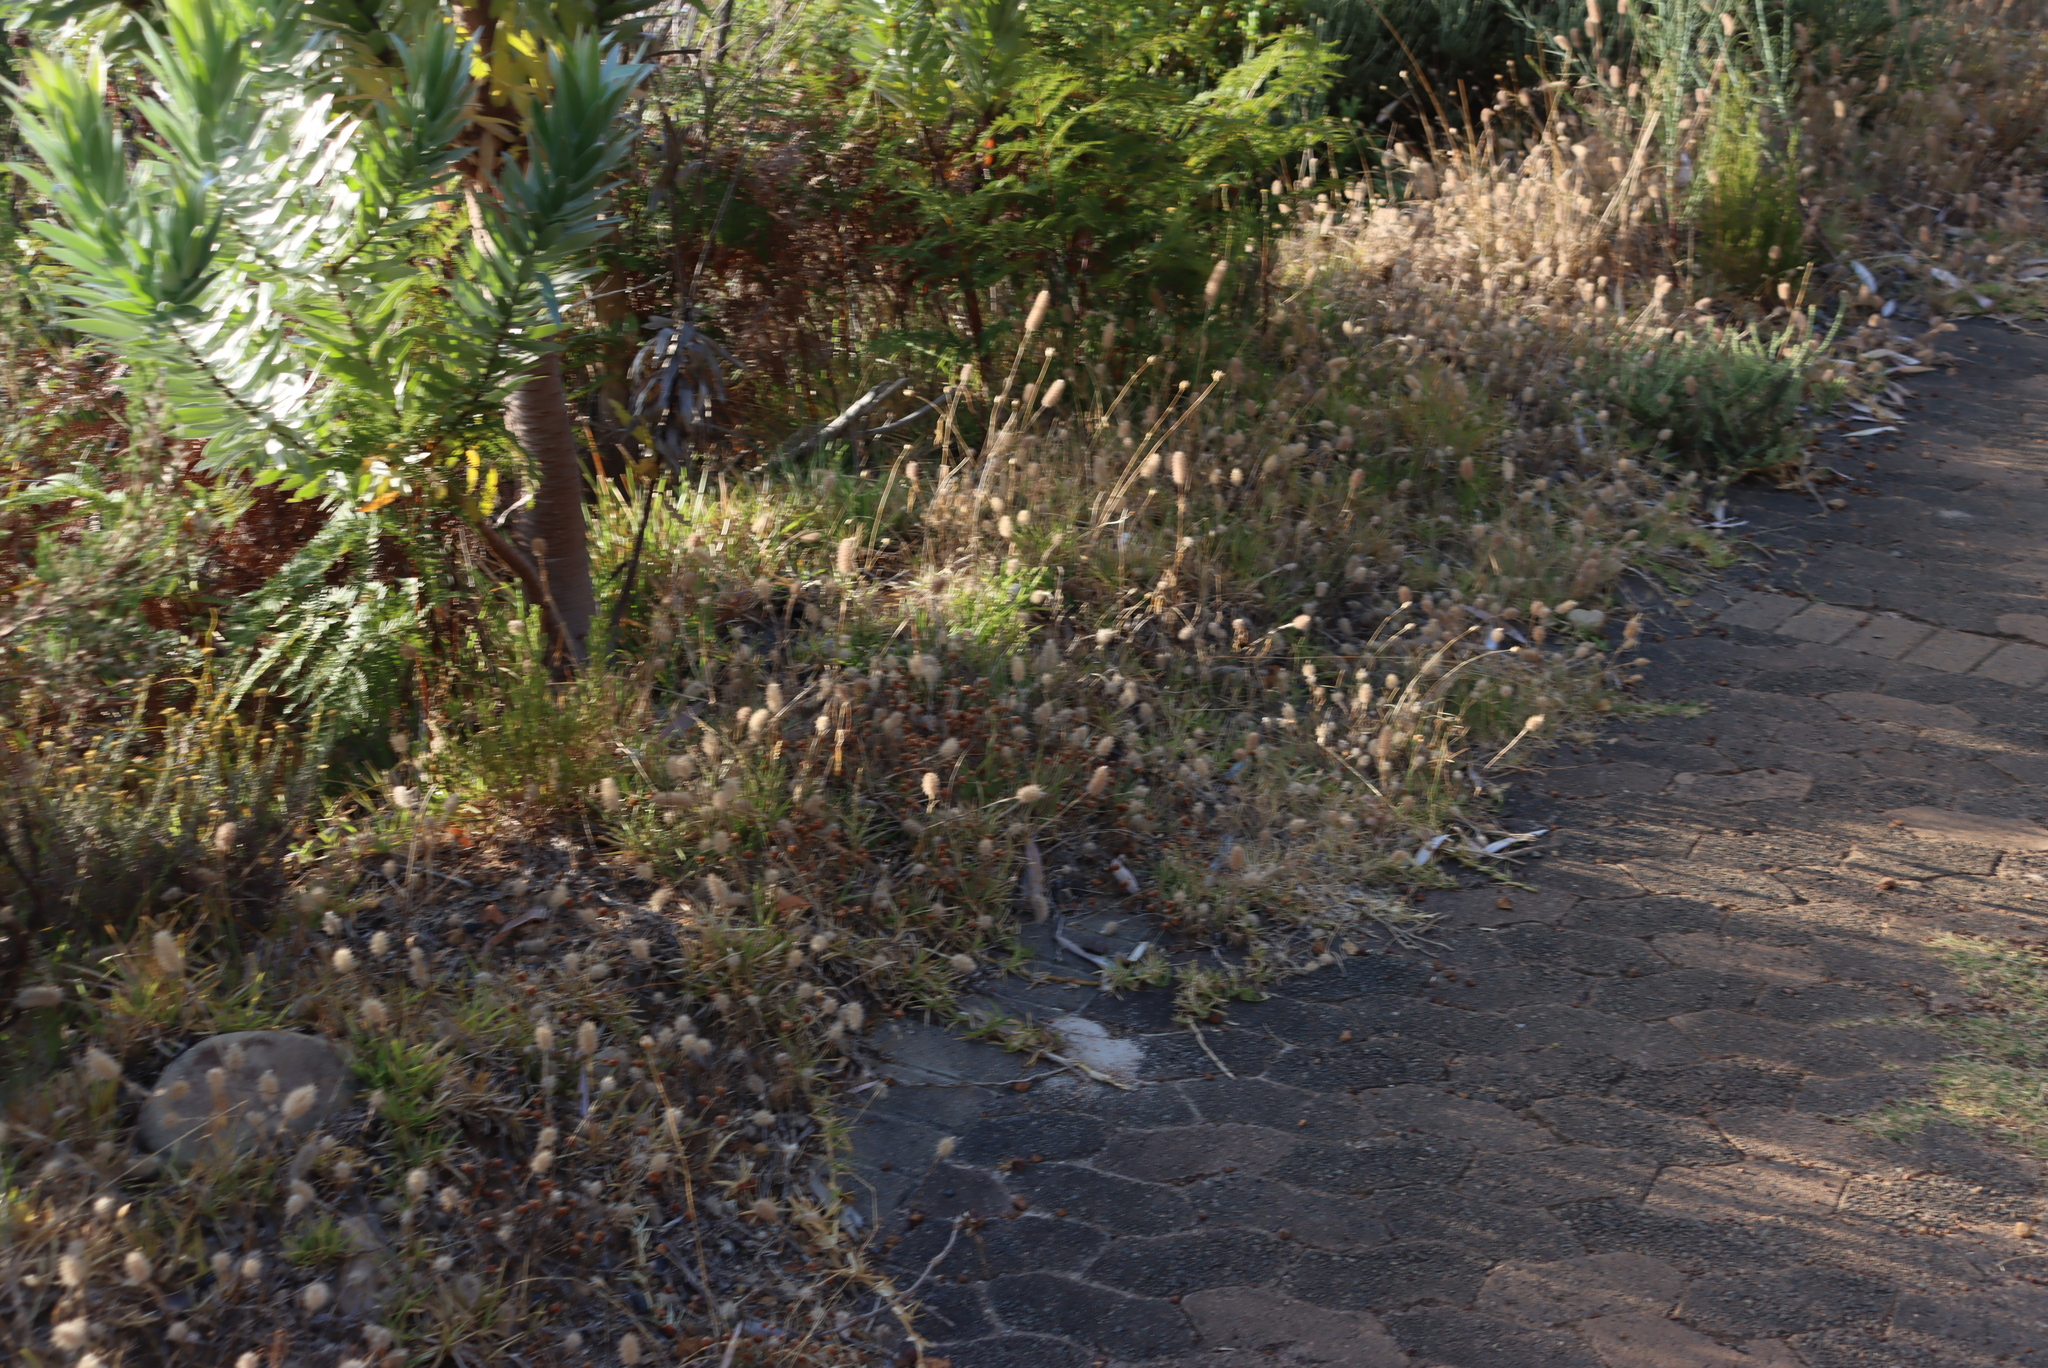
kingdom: Plantae
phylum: Tracheophyta
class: Magnoliopsida
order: Fabales
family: Fabaceae
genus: Trifolium
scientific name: Trifolium angustifolium
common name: Narrow clover
